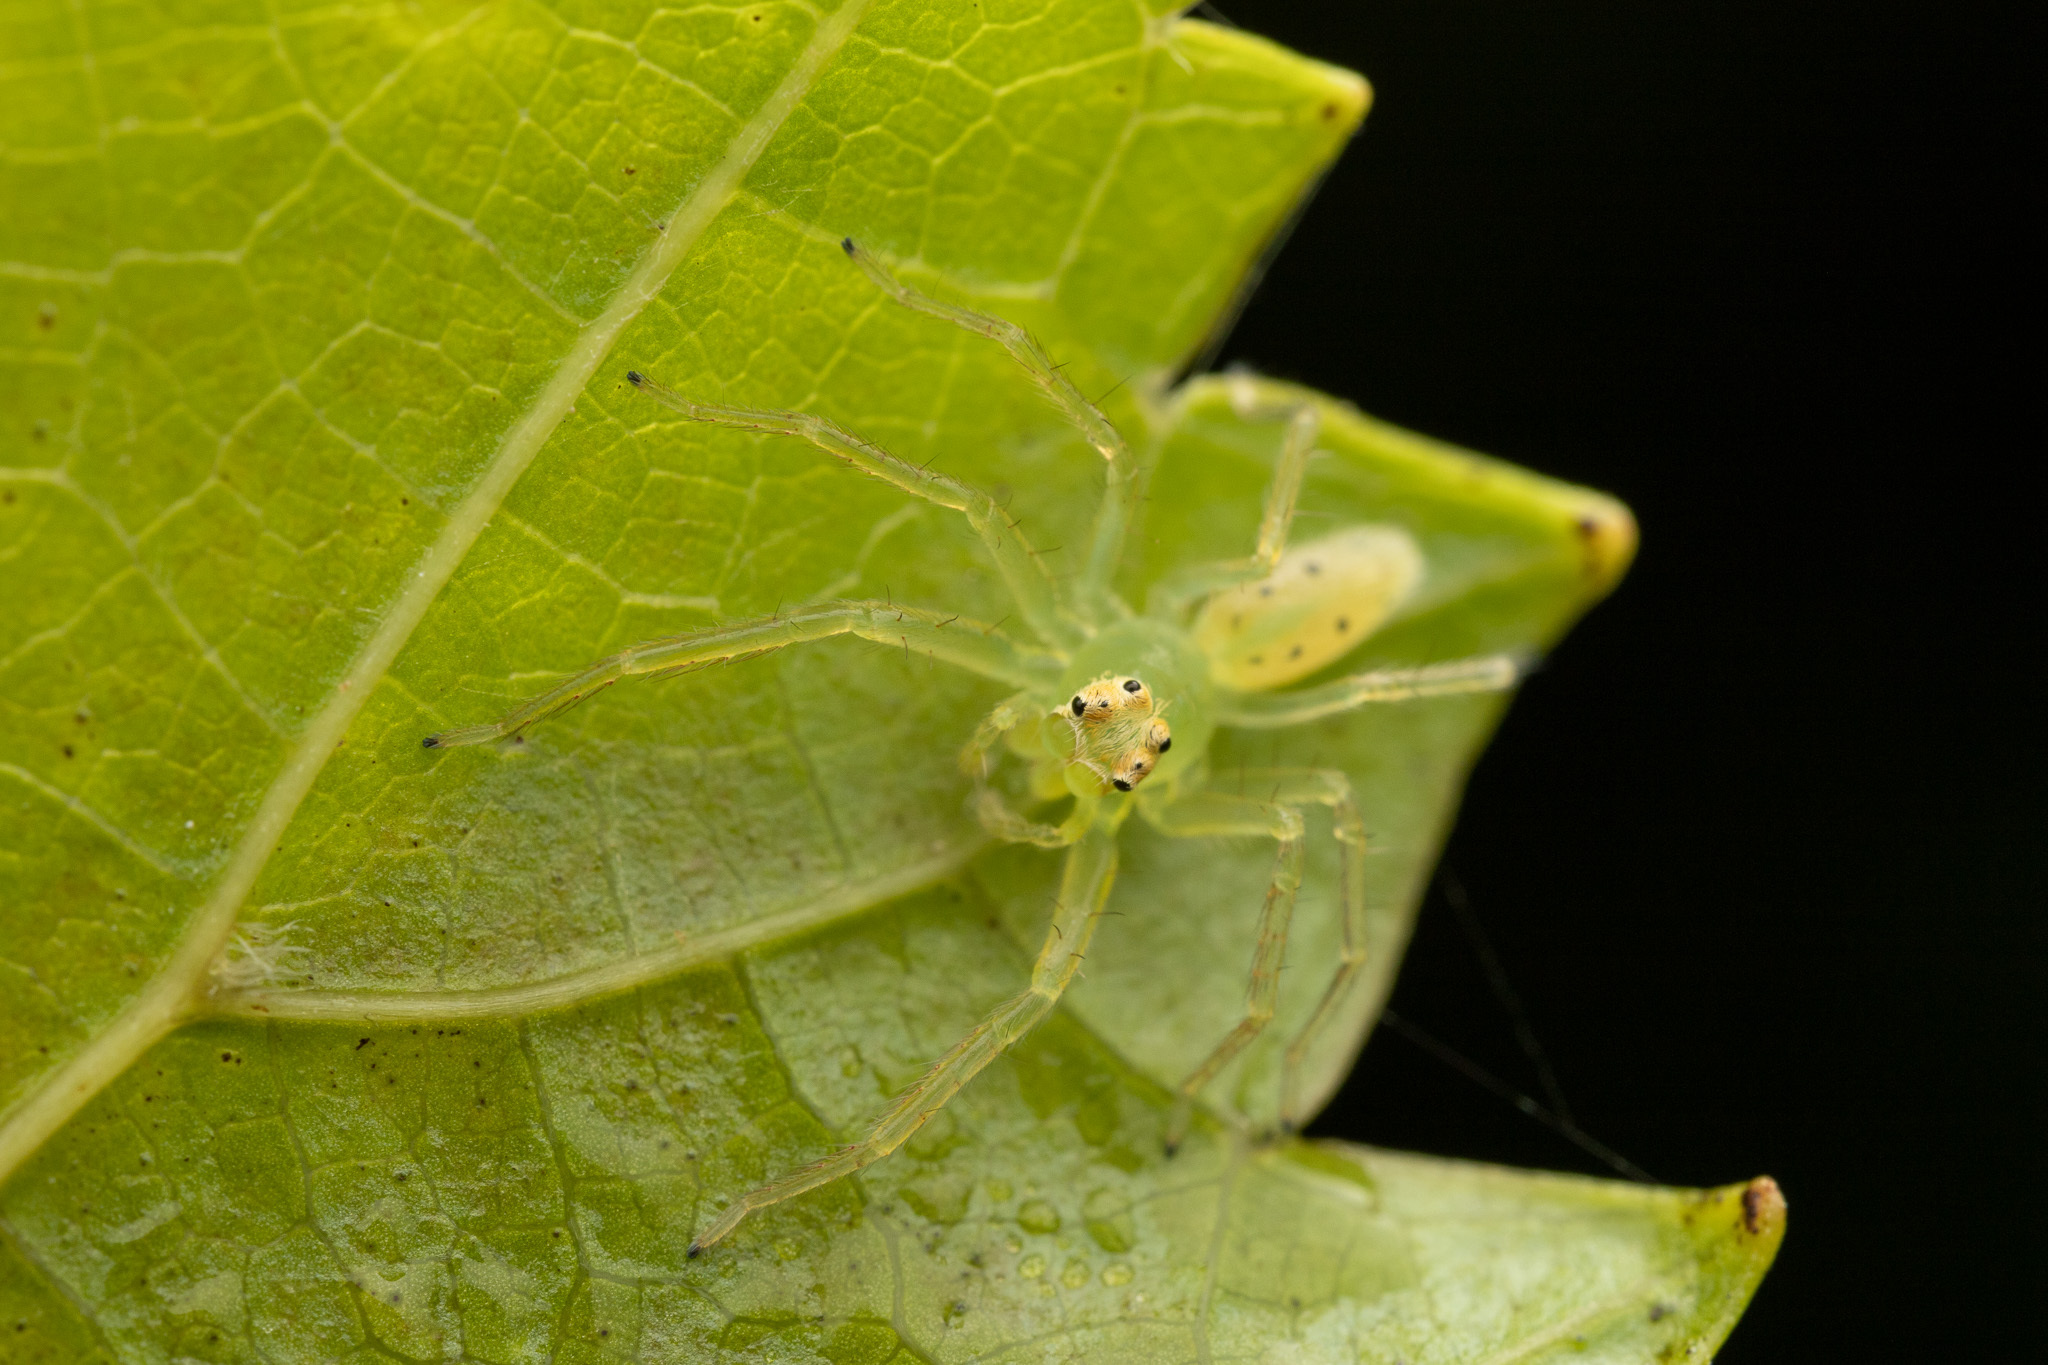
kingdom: Animalia
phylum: Arthropoda
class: Arachnida
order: Araneae
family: Salticidae
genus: Lyssomanes
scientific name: Lyssomanes viridis
